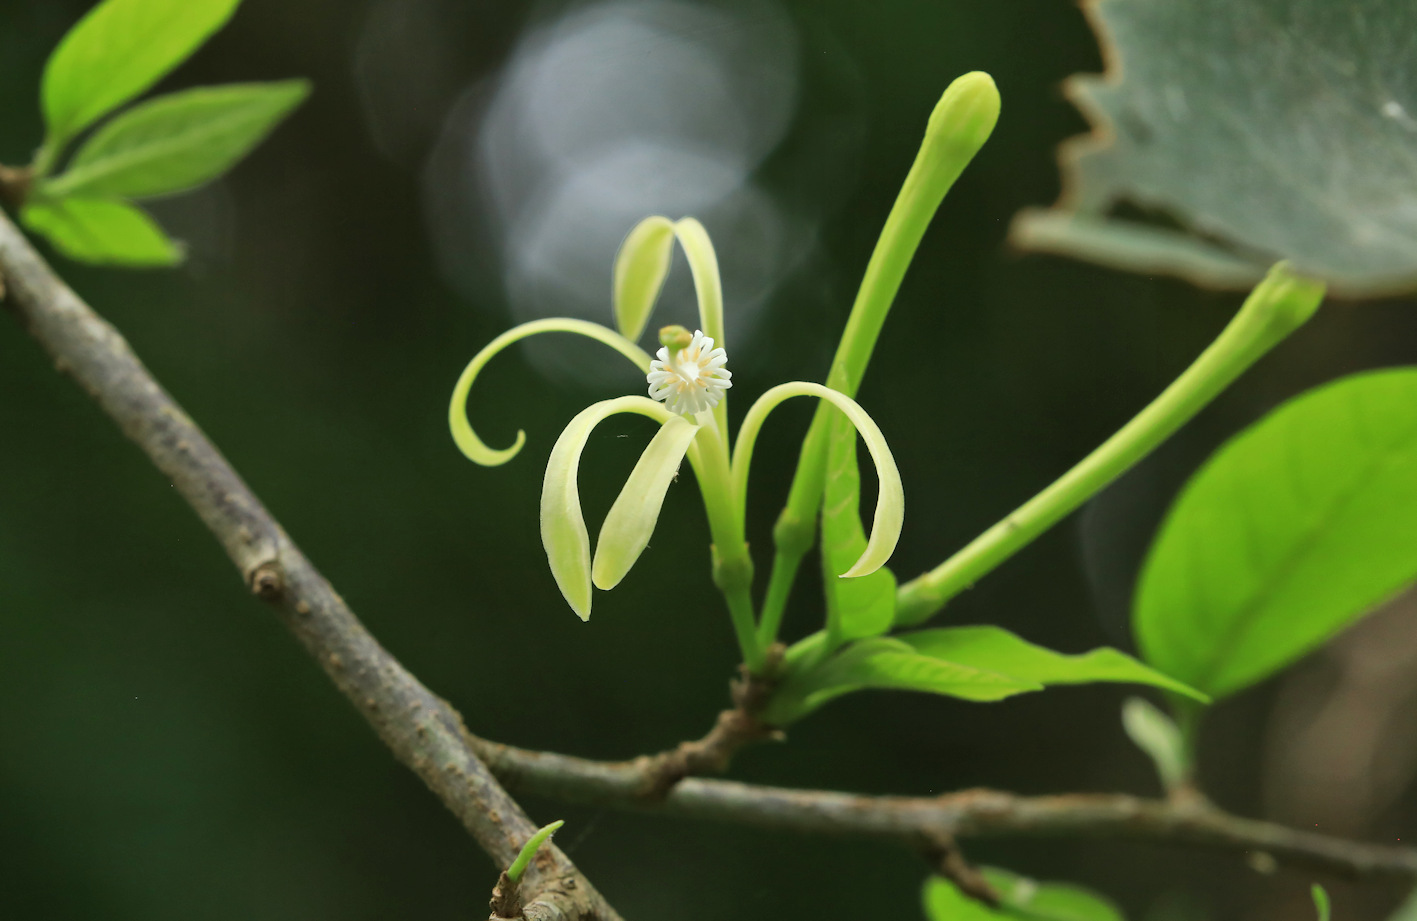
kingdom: Plantae
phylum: Tracheophyta
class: Magnoliopsida
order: Sapindales
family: Meliaceae
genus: Turraea
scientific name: Turraea floribunda
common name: Honeysuckle tree
